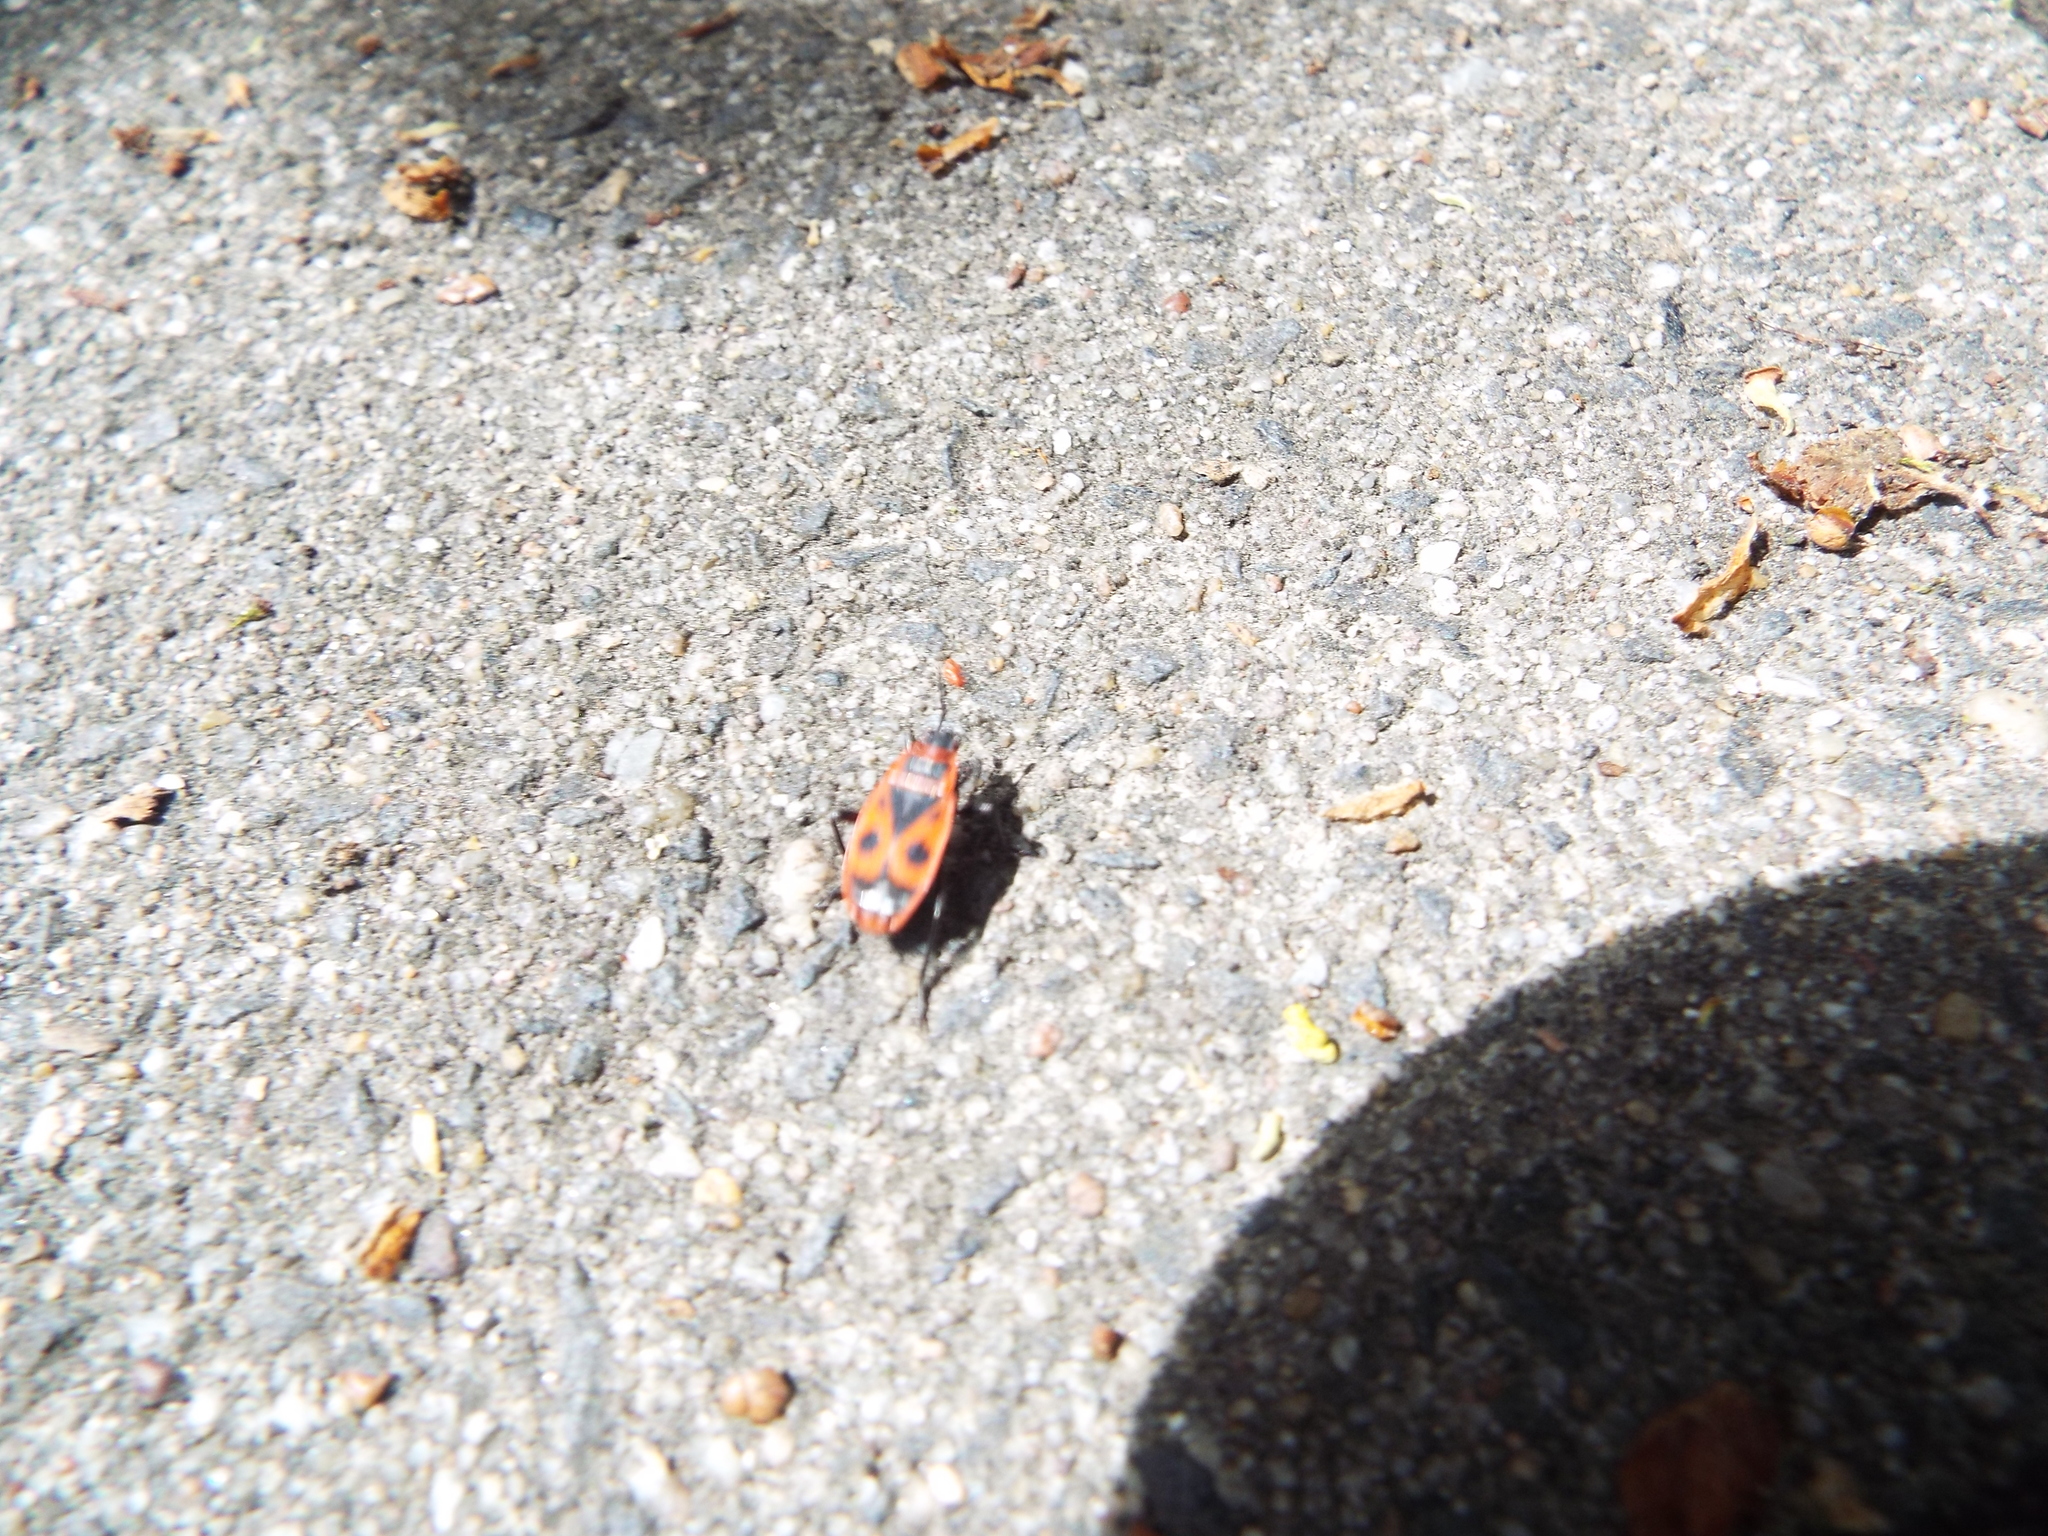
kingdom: Animalia
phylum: Arthropoda
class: Insecta
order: Hemiptera
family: Pyrrhocoridae
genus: Pyrrhocoris
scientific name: Pyrrhocoris apterus
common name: Firebug
